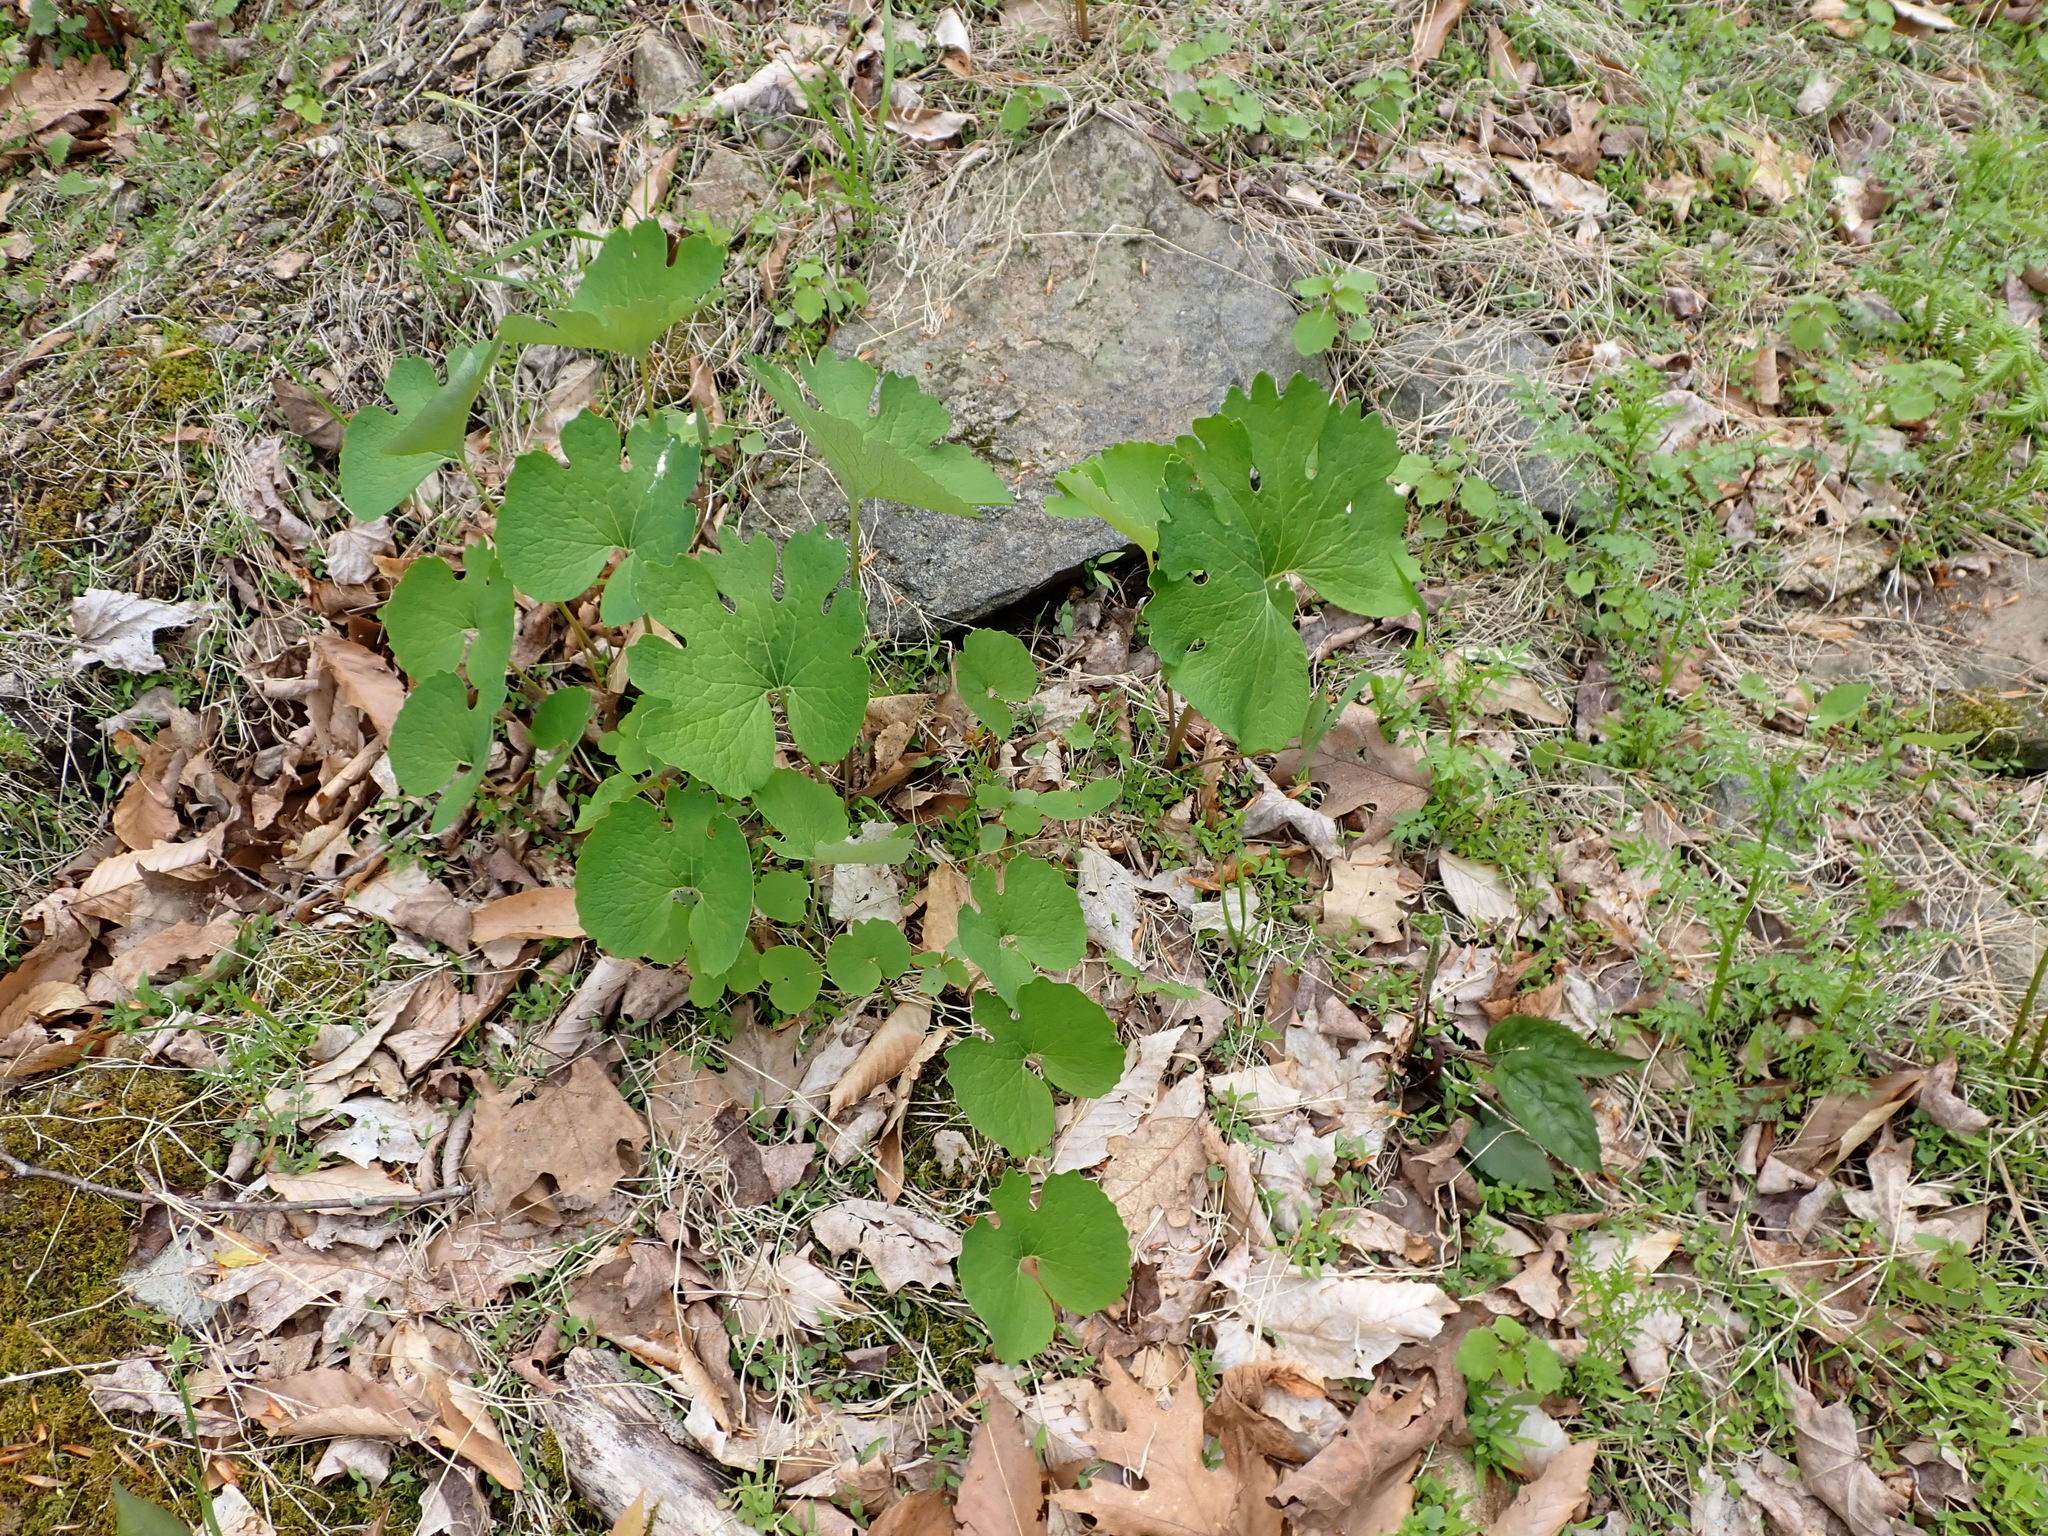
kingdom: Plantae
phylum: Tracheophyta
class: Magnoliopsida
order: Ranunculales
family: Papaveraceae
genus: Sanguinaria
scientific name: Sanguinaria canadensis
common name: Bloodroot
